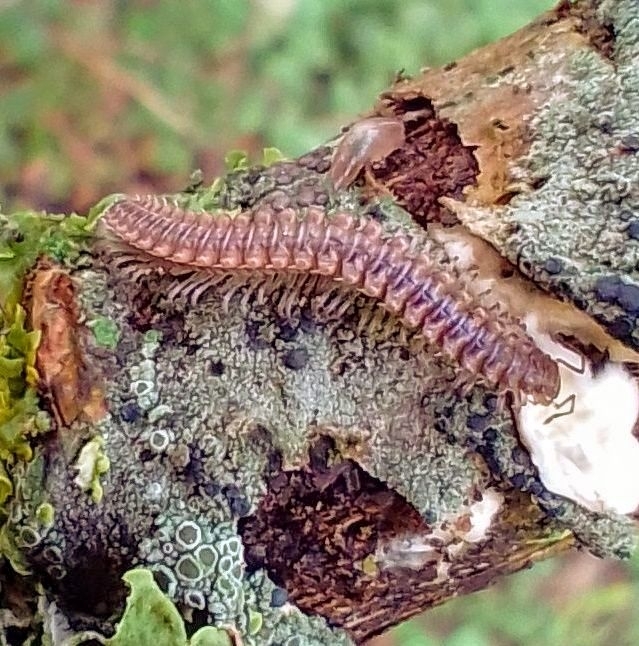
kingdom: Animalia
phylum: Arthropoda
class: Diplopoda
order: Chordeumatida
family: Craspedosomatidae
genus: Nanogona
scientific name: Nanogona polydesmoides
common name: Eyed flat-backed millipede
